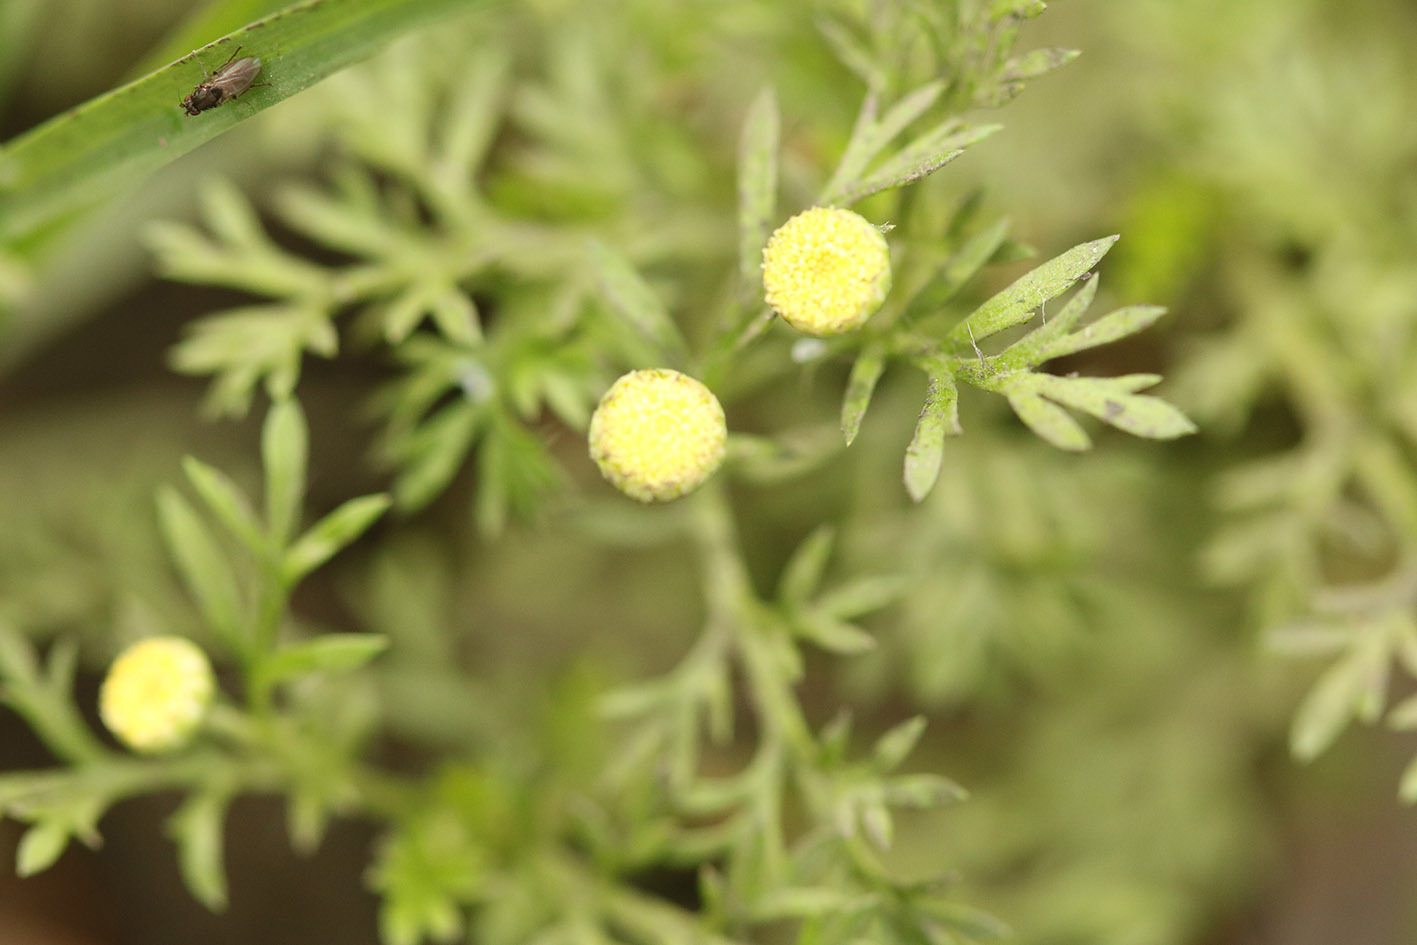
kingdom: Plantae
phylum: Tracheophyta
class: Magnoliopsida
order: Asterales
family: Asteraceae
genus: Cotula
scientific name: Cotula coronopifolia
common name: Buttonweed
